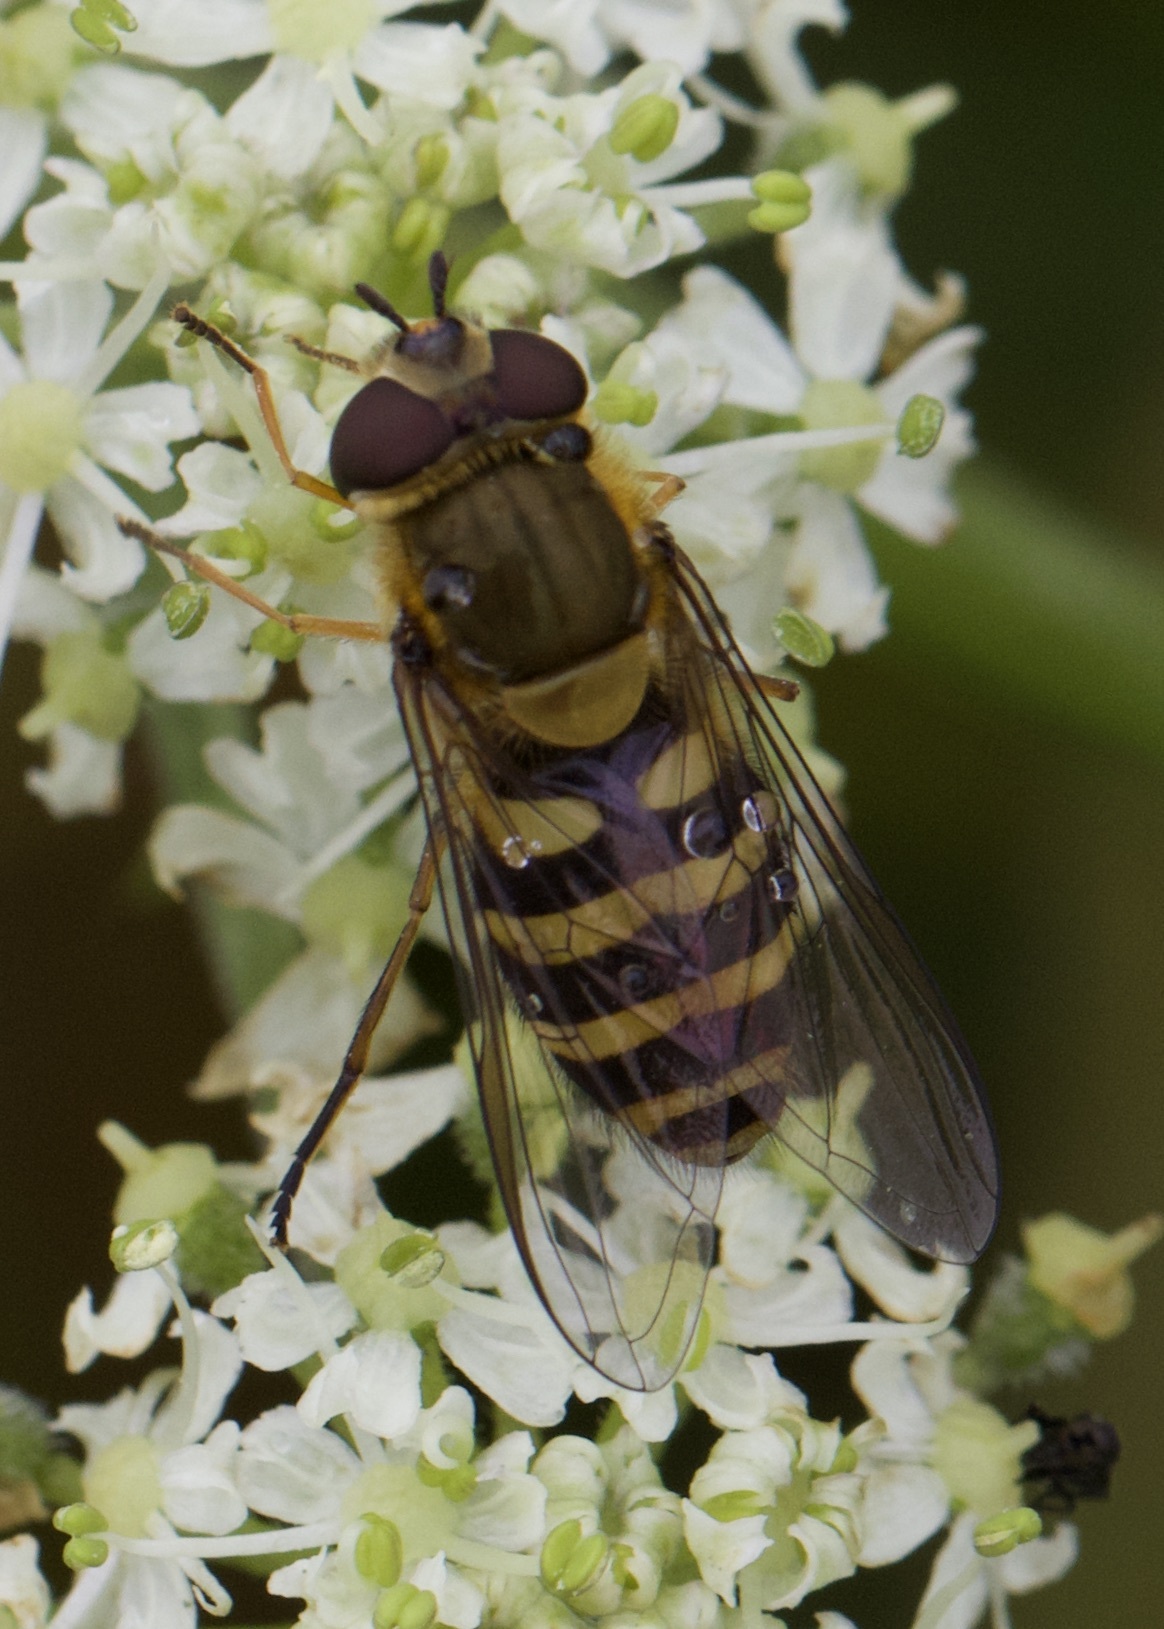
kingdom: Animalia
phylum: Arthropoda
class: Insecta
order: Diptera
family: Syrphidae
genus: Syrphus
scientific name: Syrphus
